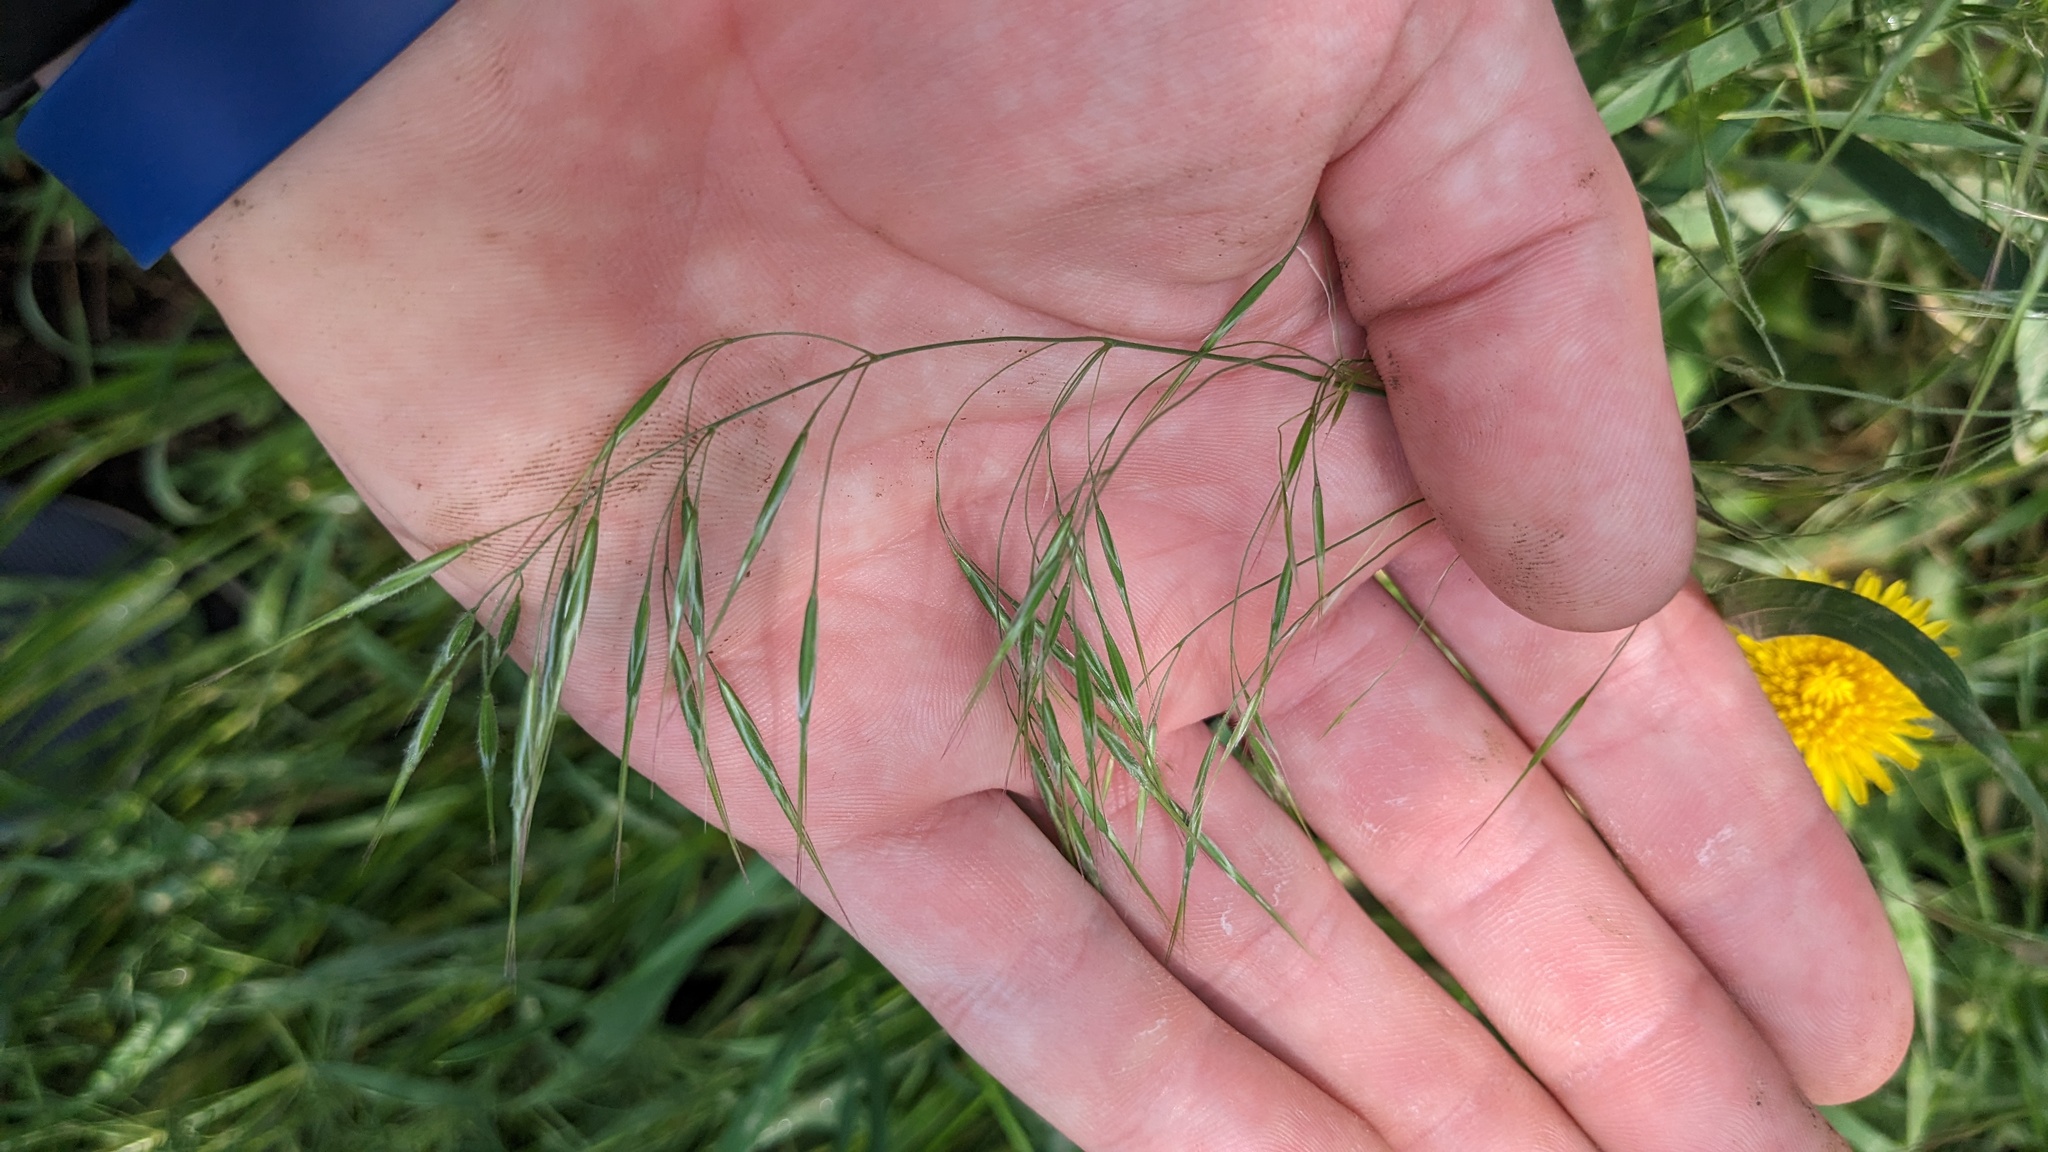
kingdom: Plantae
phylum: Tracheophyta
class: Liliopsida
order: Poales
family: Poaceae
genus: Bromus
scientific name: Bromus tectorum
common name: Cheatgrass
